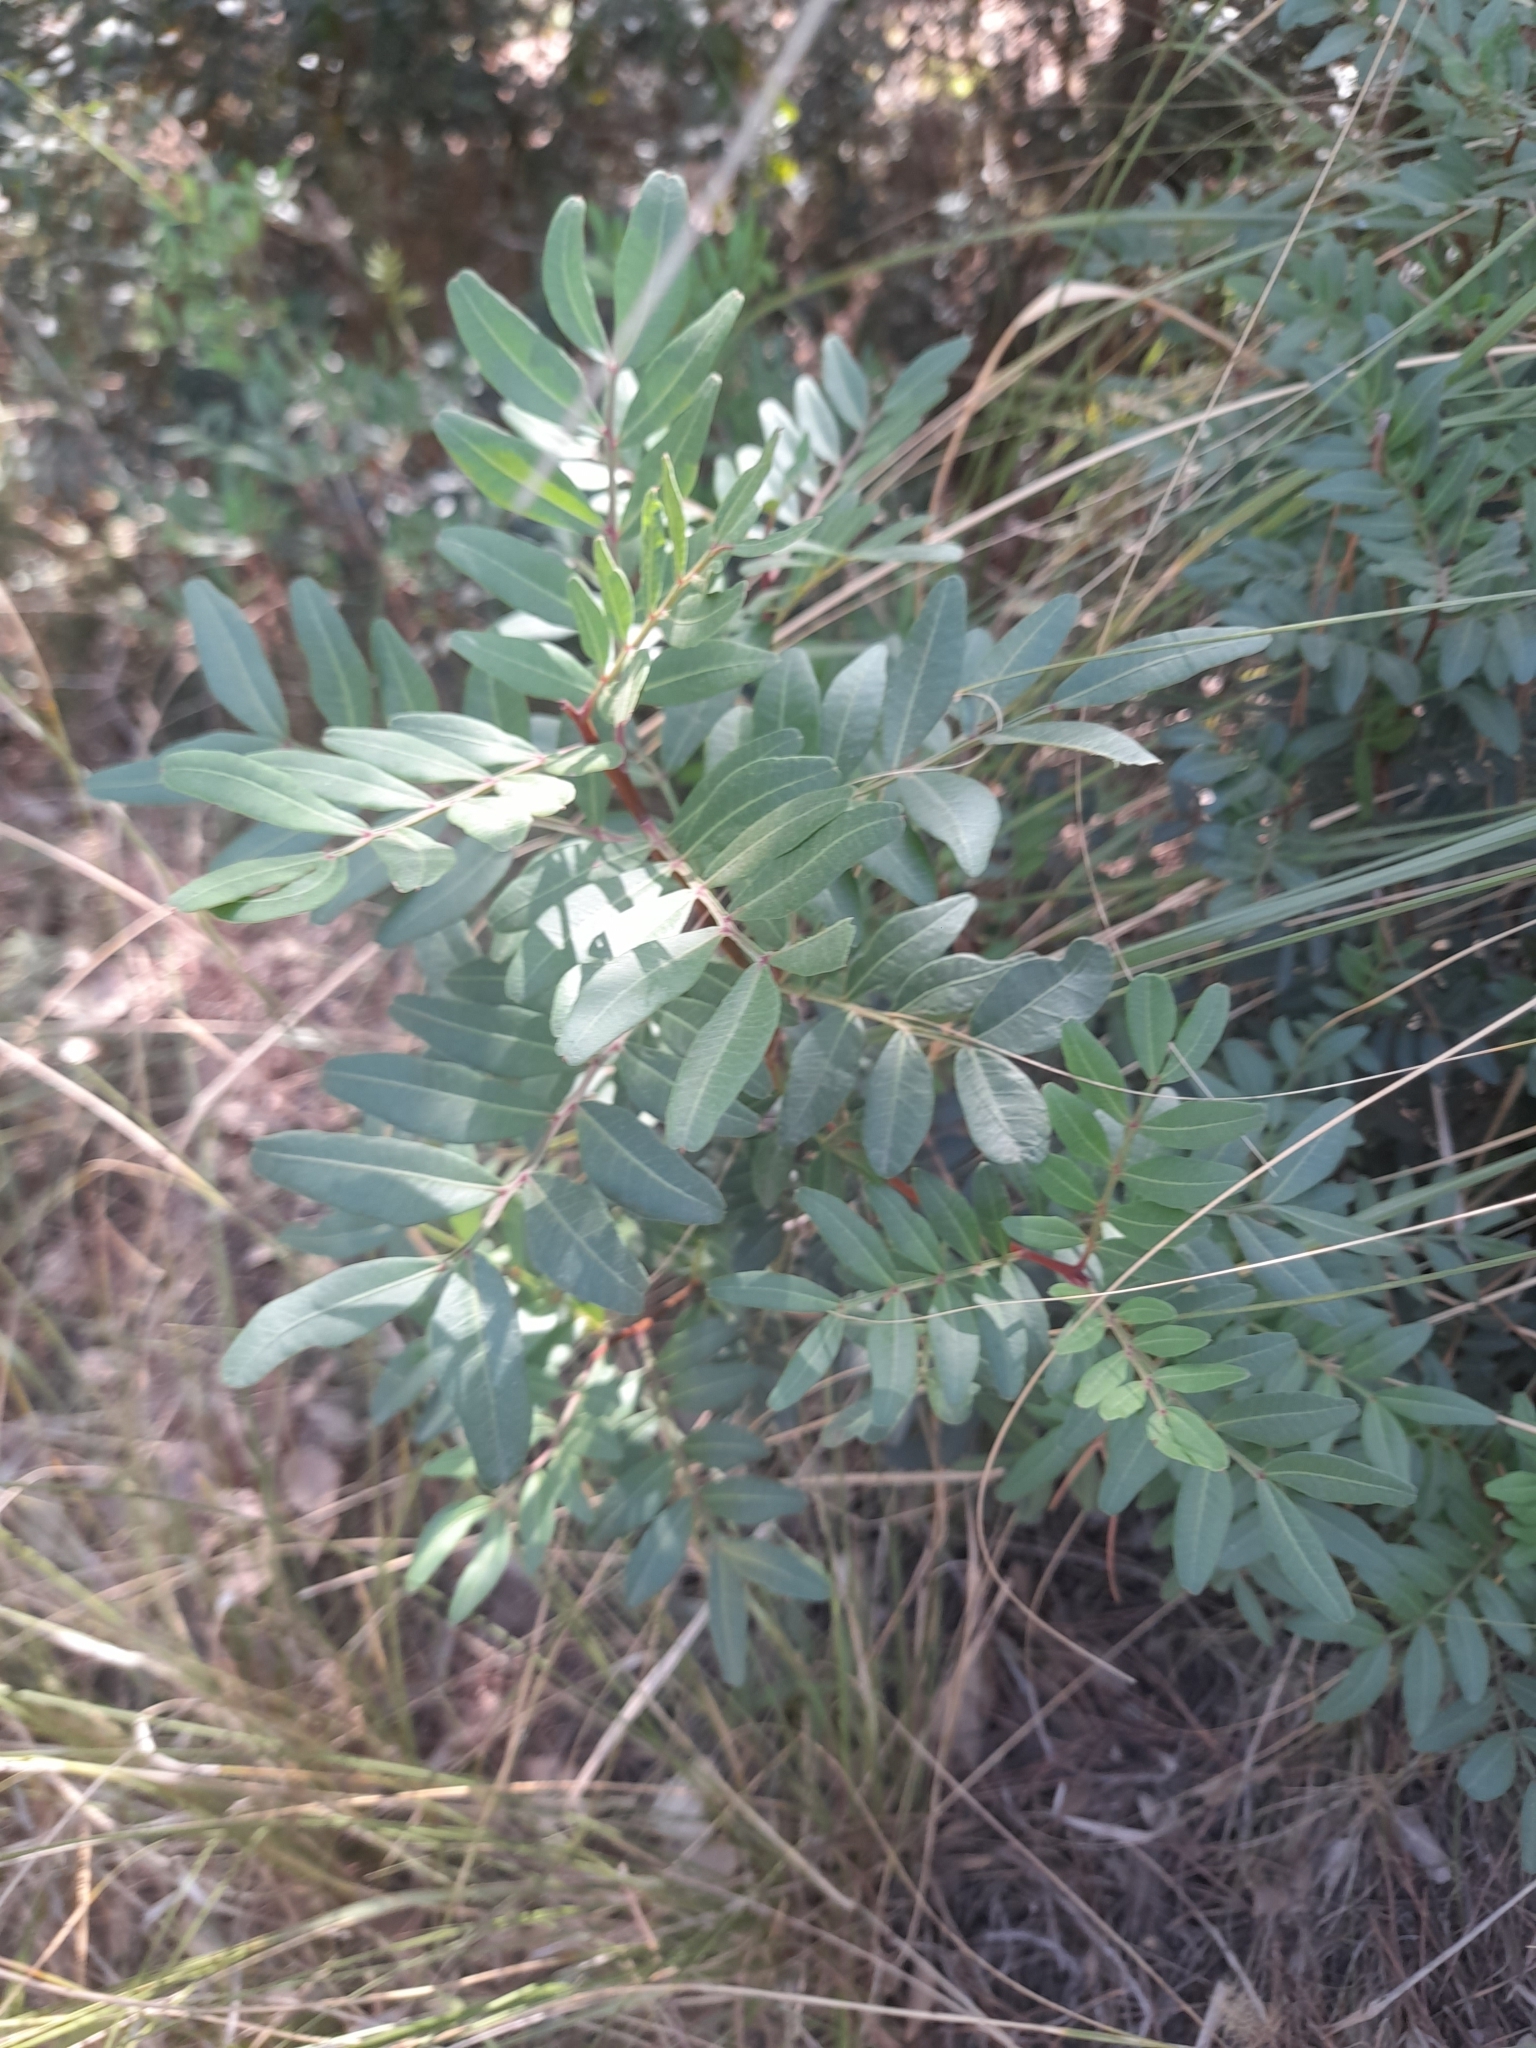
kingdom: Plantae
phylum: Tracheophyta
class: Magnoliopsida
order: Sapindales
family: Anacardiaceae
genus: Pistacia
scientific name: Pistacia lentiscus
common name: Lentisk
